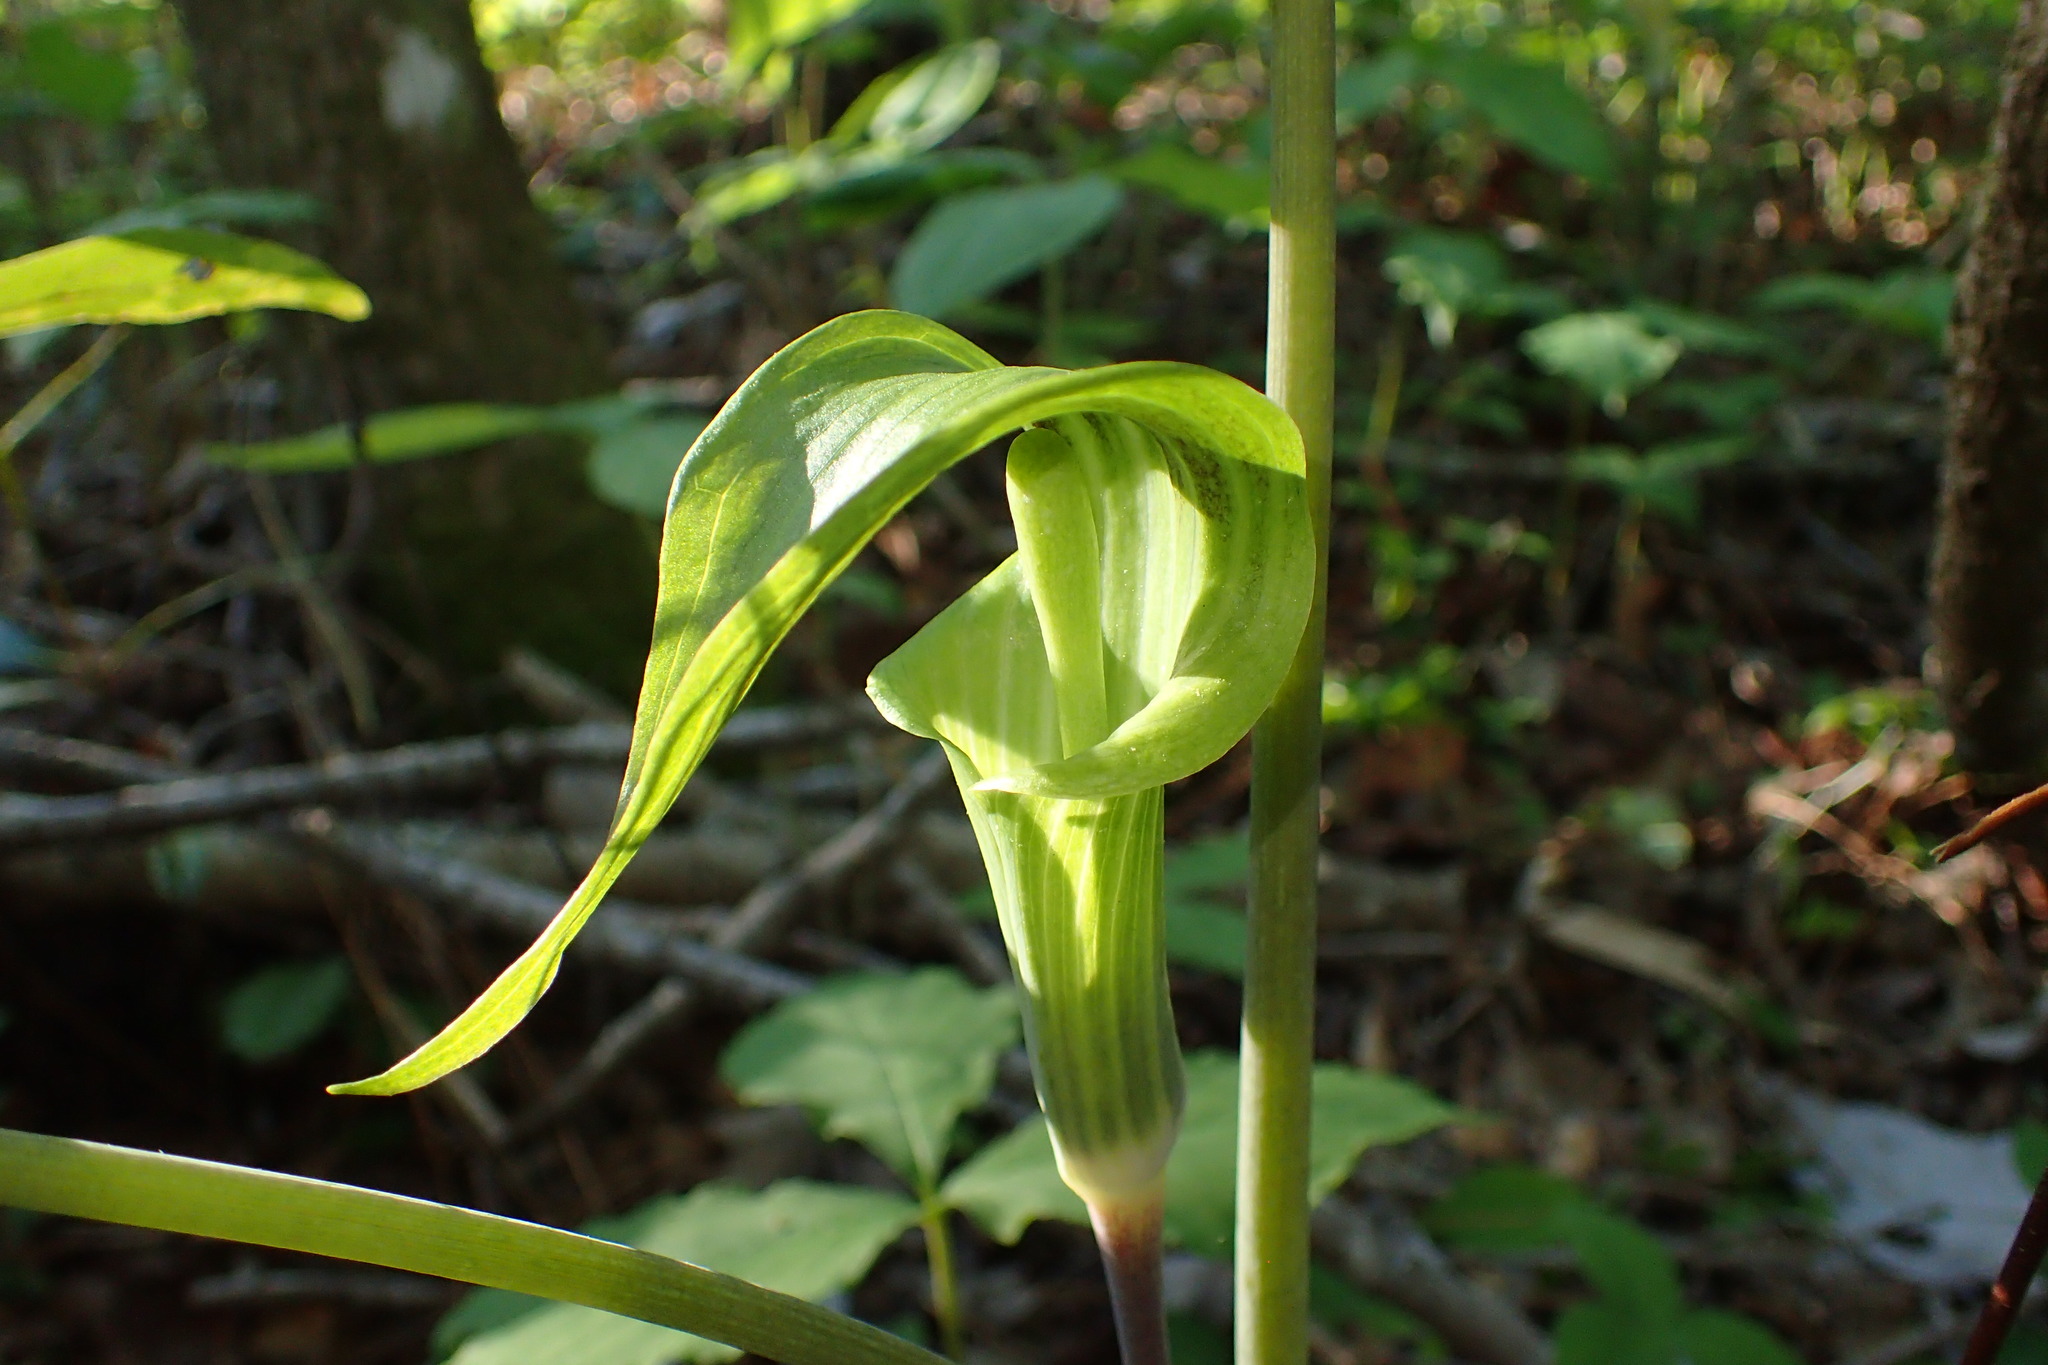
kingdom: Plantae
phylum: Tracheophyta
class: Liliopsida
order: Alismatales
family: Araceae
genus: Arisaema
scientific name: Arisaema triphyllum
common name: Jack-in-the-pulpit
